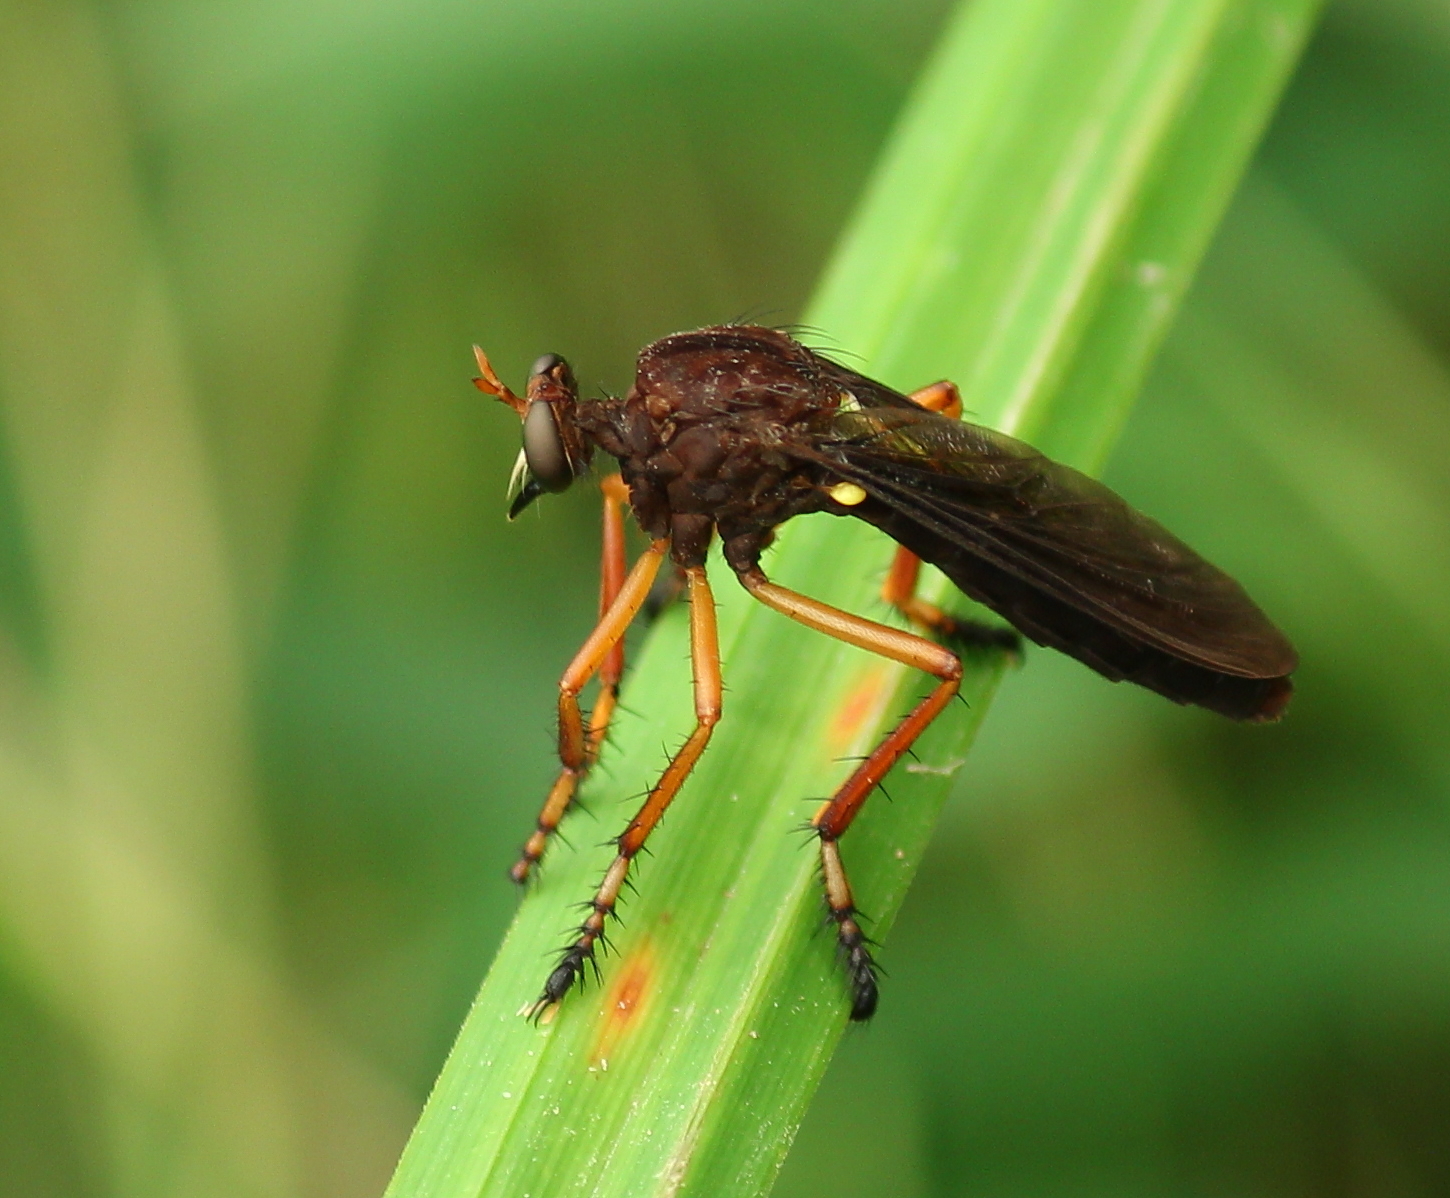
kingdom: Animalia
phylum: Arthropoda
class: Insecta
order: Diptera
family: Asilidae
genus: Diogmites
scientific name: Diogmites platypterus
